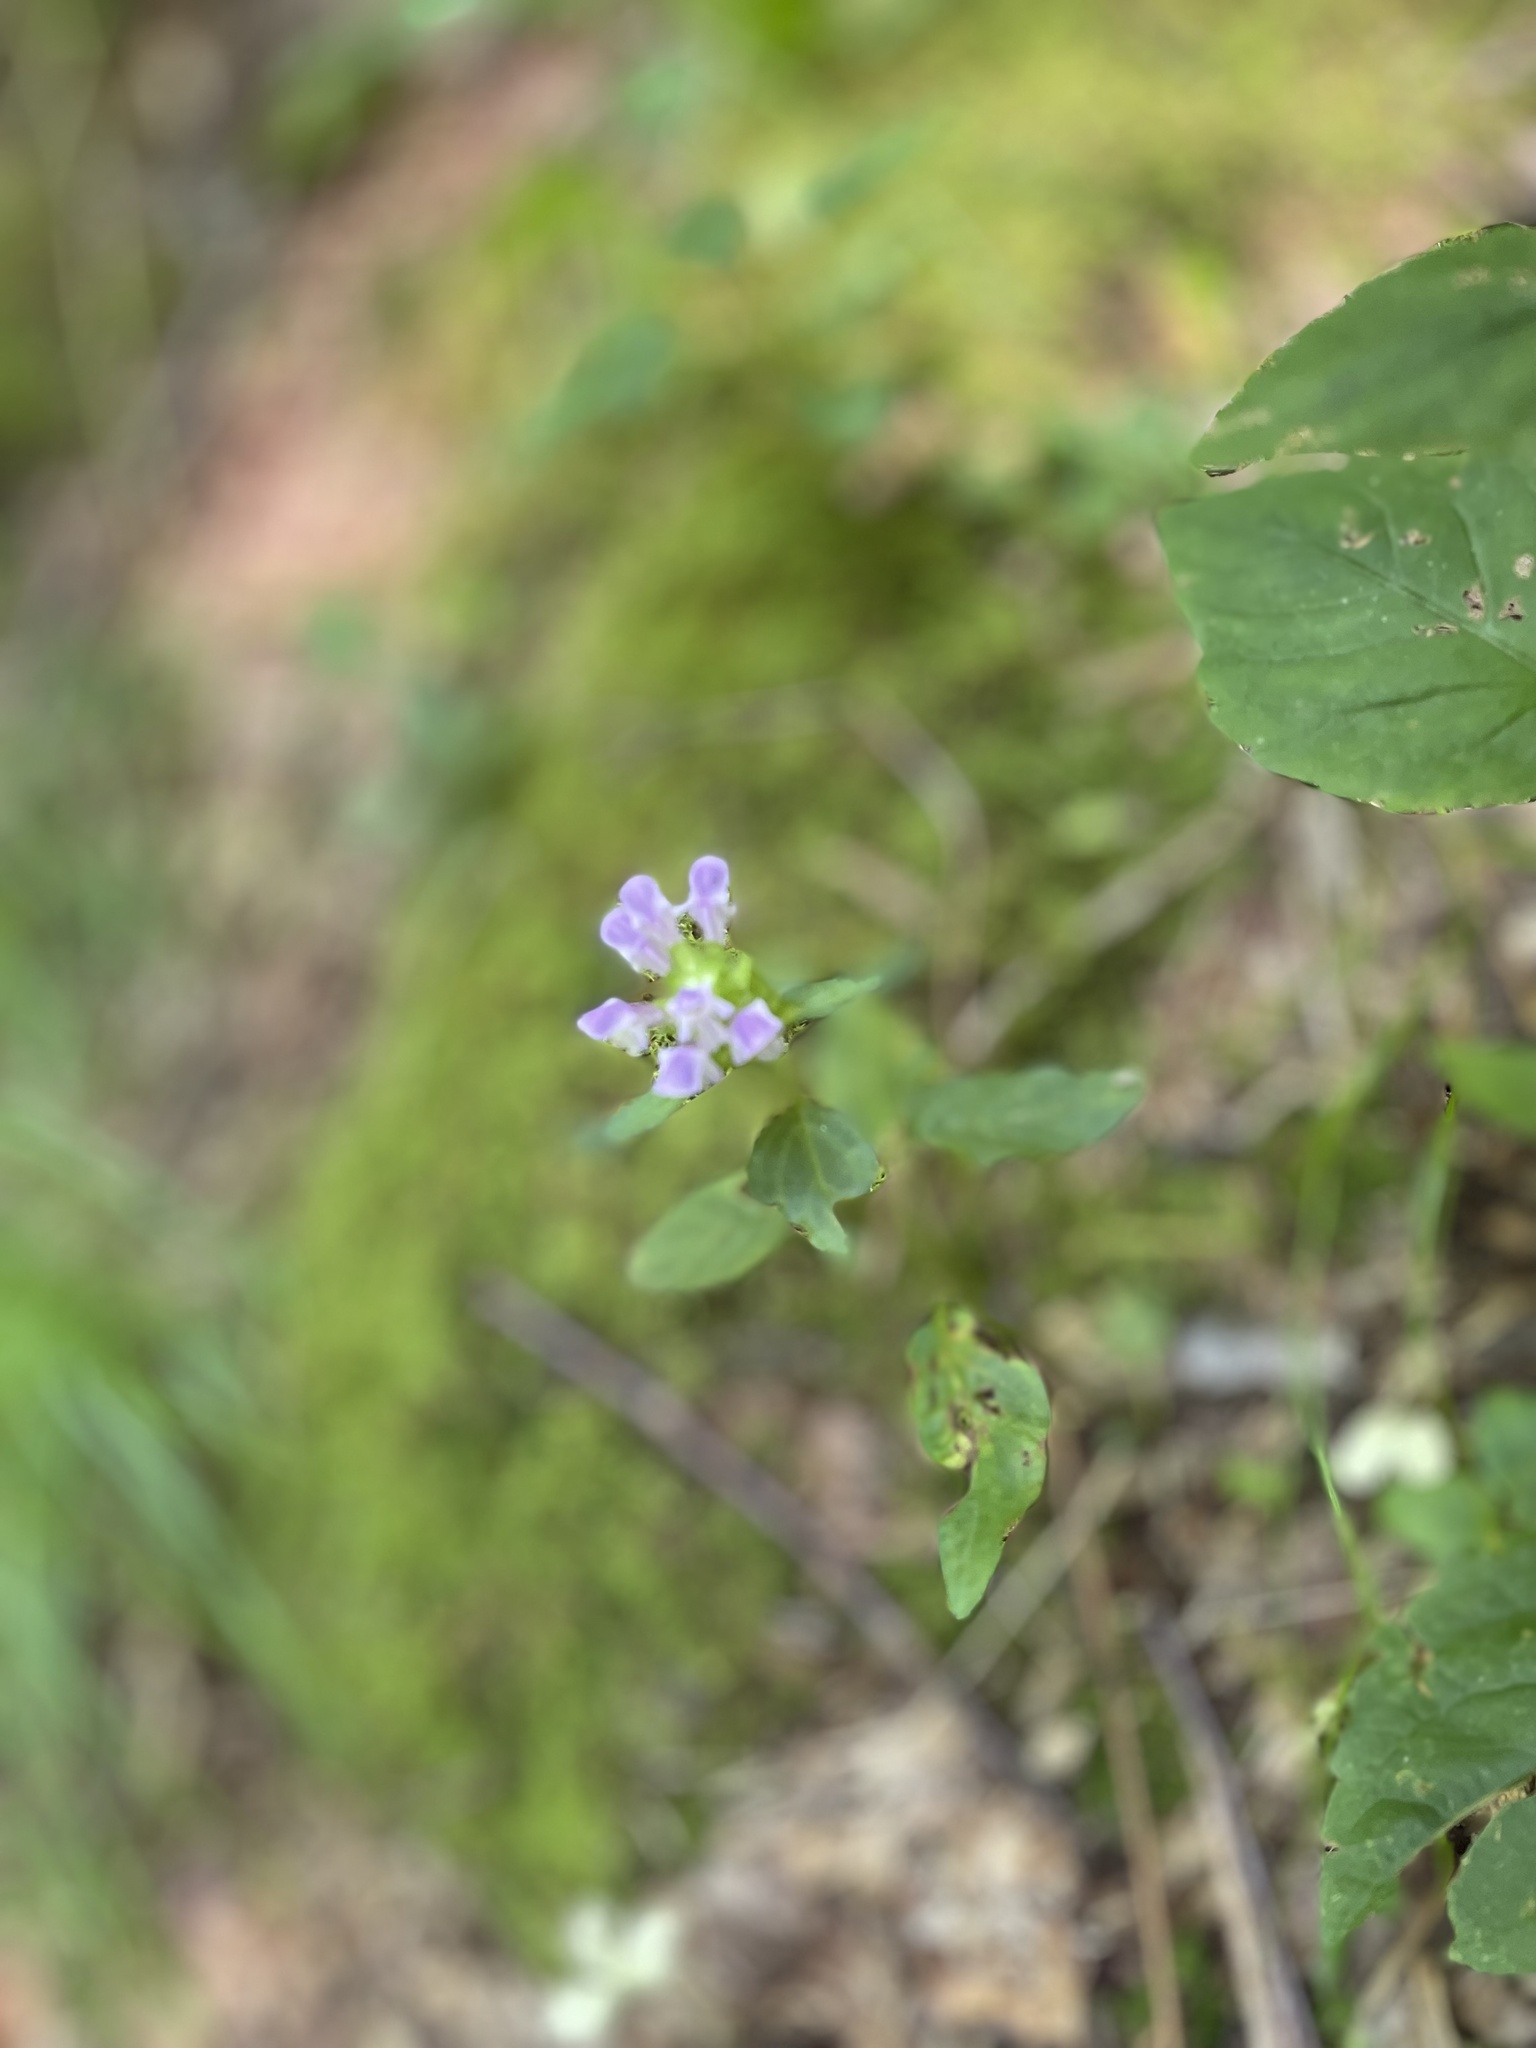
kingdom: Plantae
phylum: Tracheophyta
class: Magnoliopsida
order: Lamiales
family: Lamiaceae
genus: Prunella
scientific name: Prunella vulgaris
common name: Heal-all
